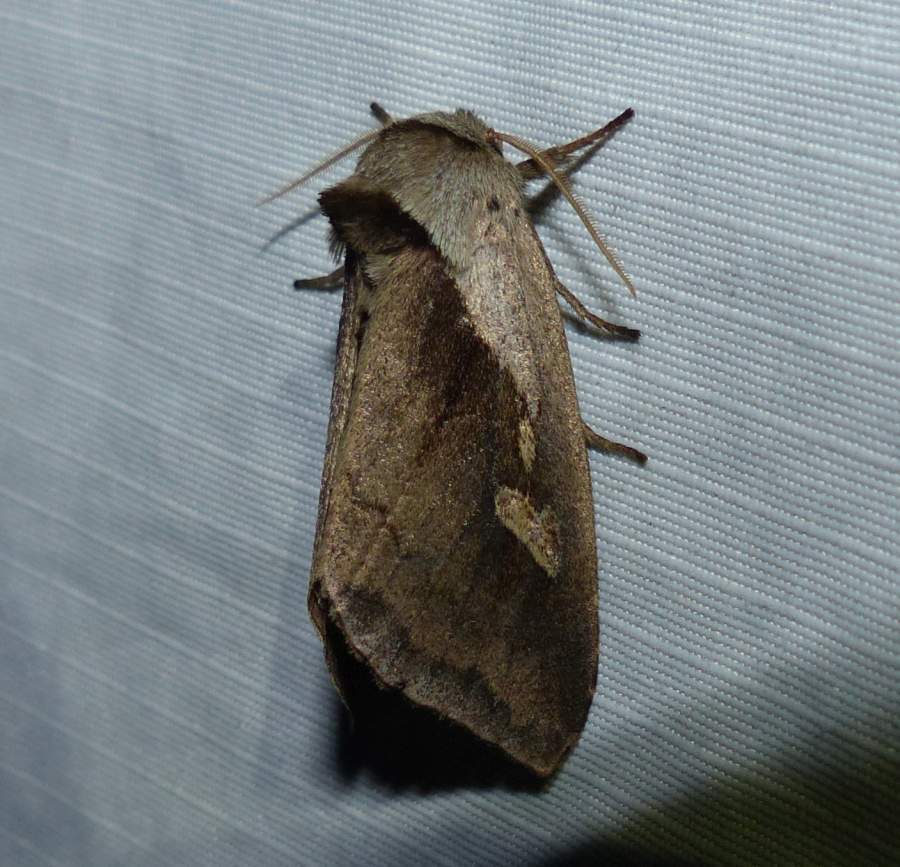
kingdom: Animalia
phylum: Arthropoda
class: Insecta
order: Lepidoptera
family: Noctuidae
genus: Bellura
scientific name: Bellura obliqua
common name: Cattail borer moth
